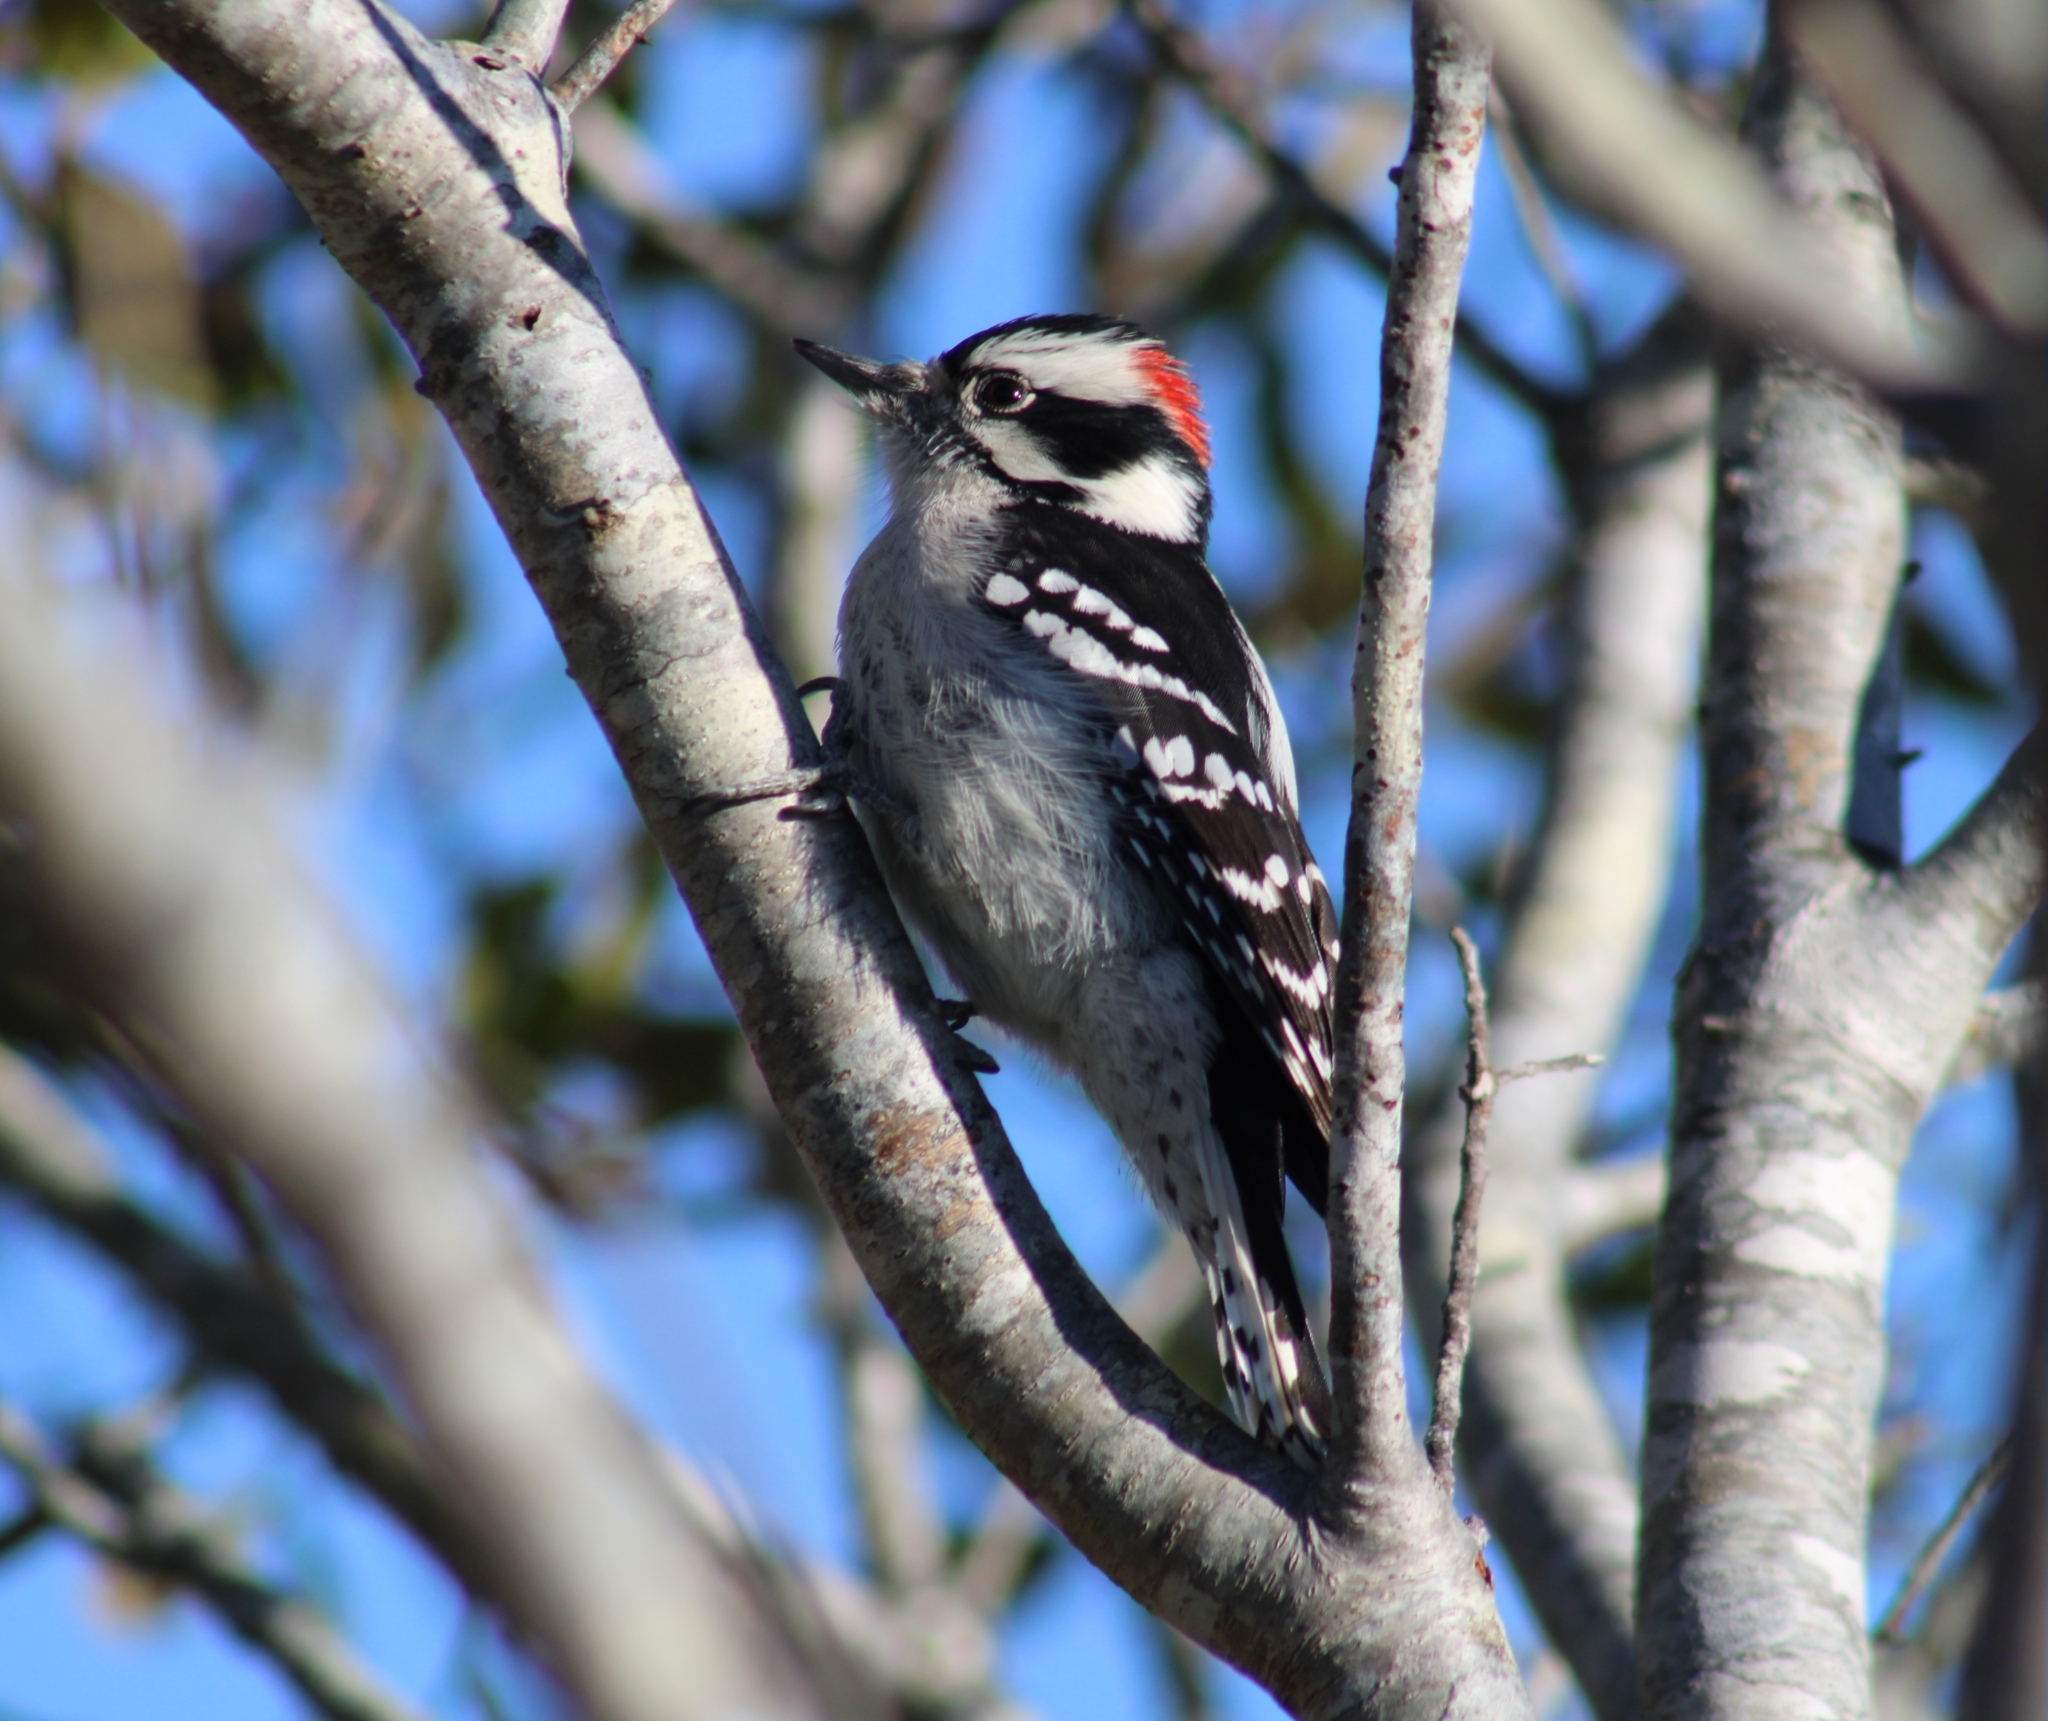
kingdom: Animalia
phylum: Chordata
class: Aves
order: Piciformes
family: Picidae
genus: Dryobates
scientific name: Dryobates pubescens
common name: Downy woodpecker
